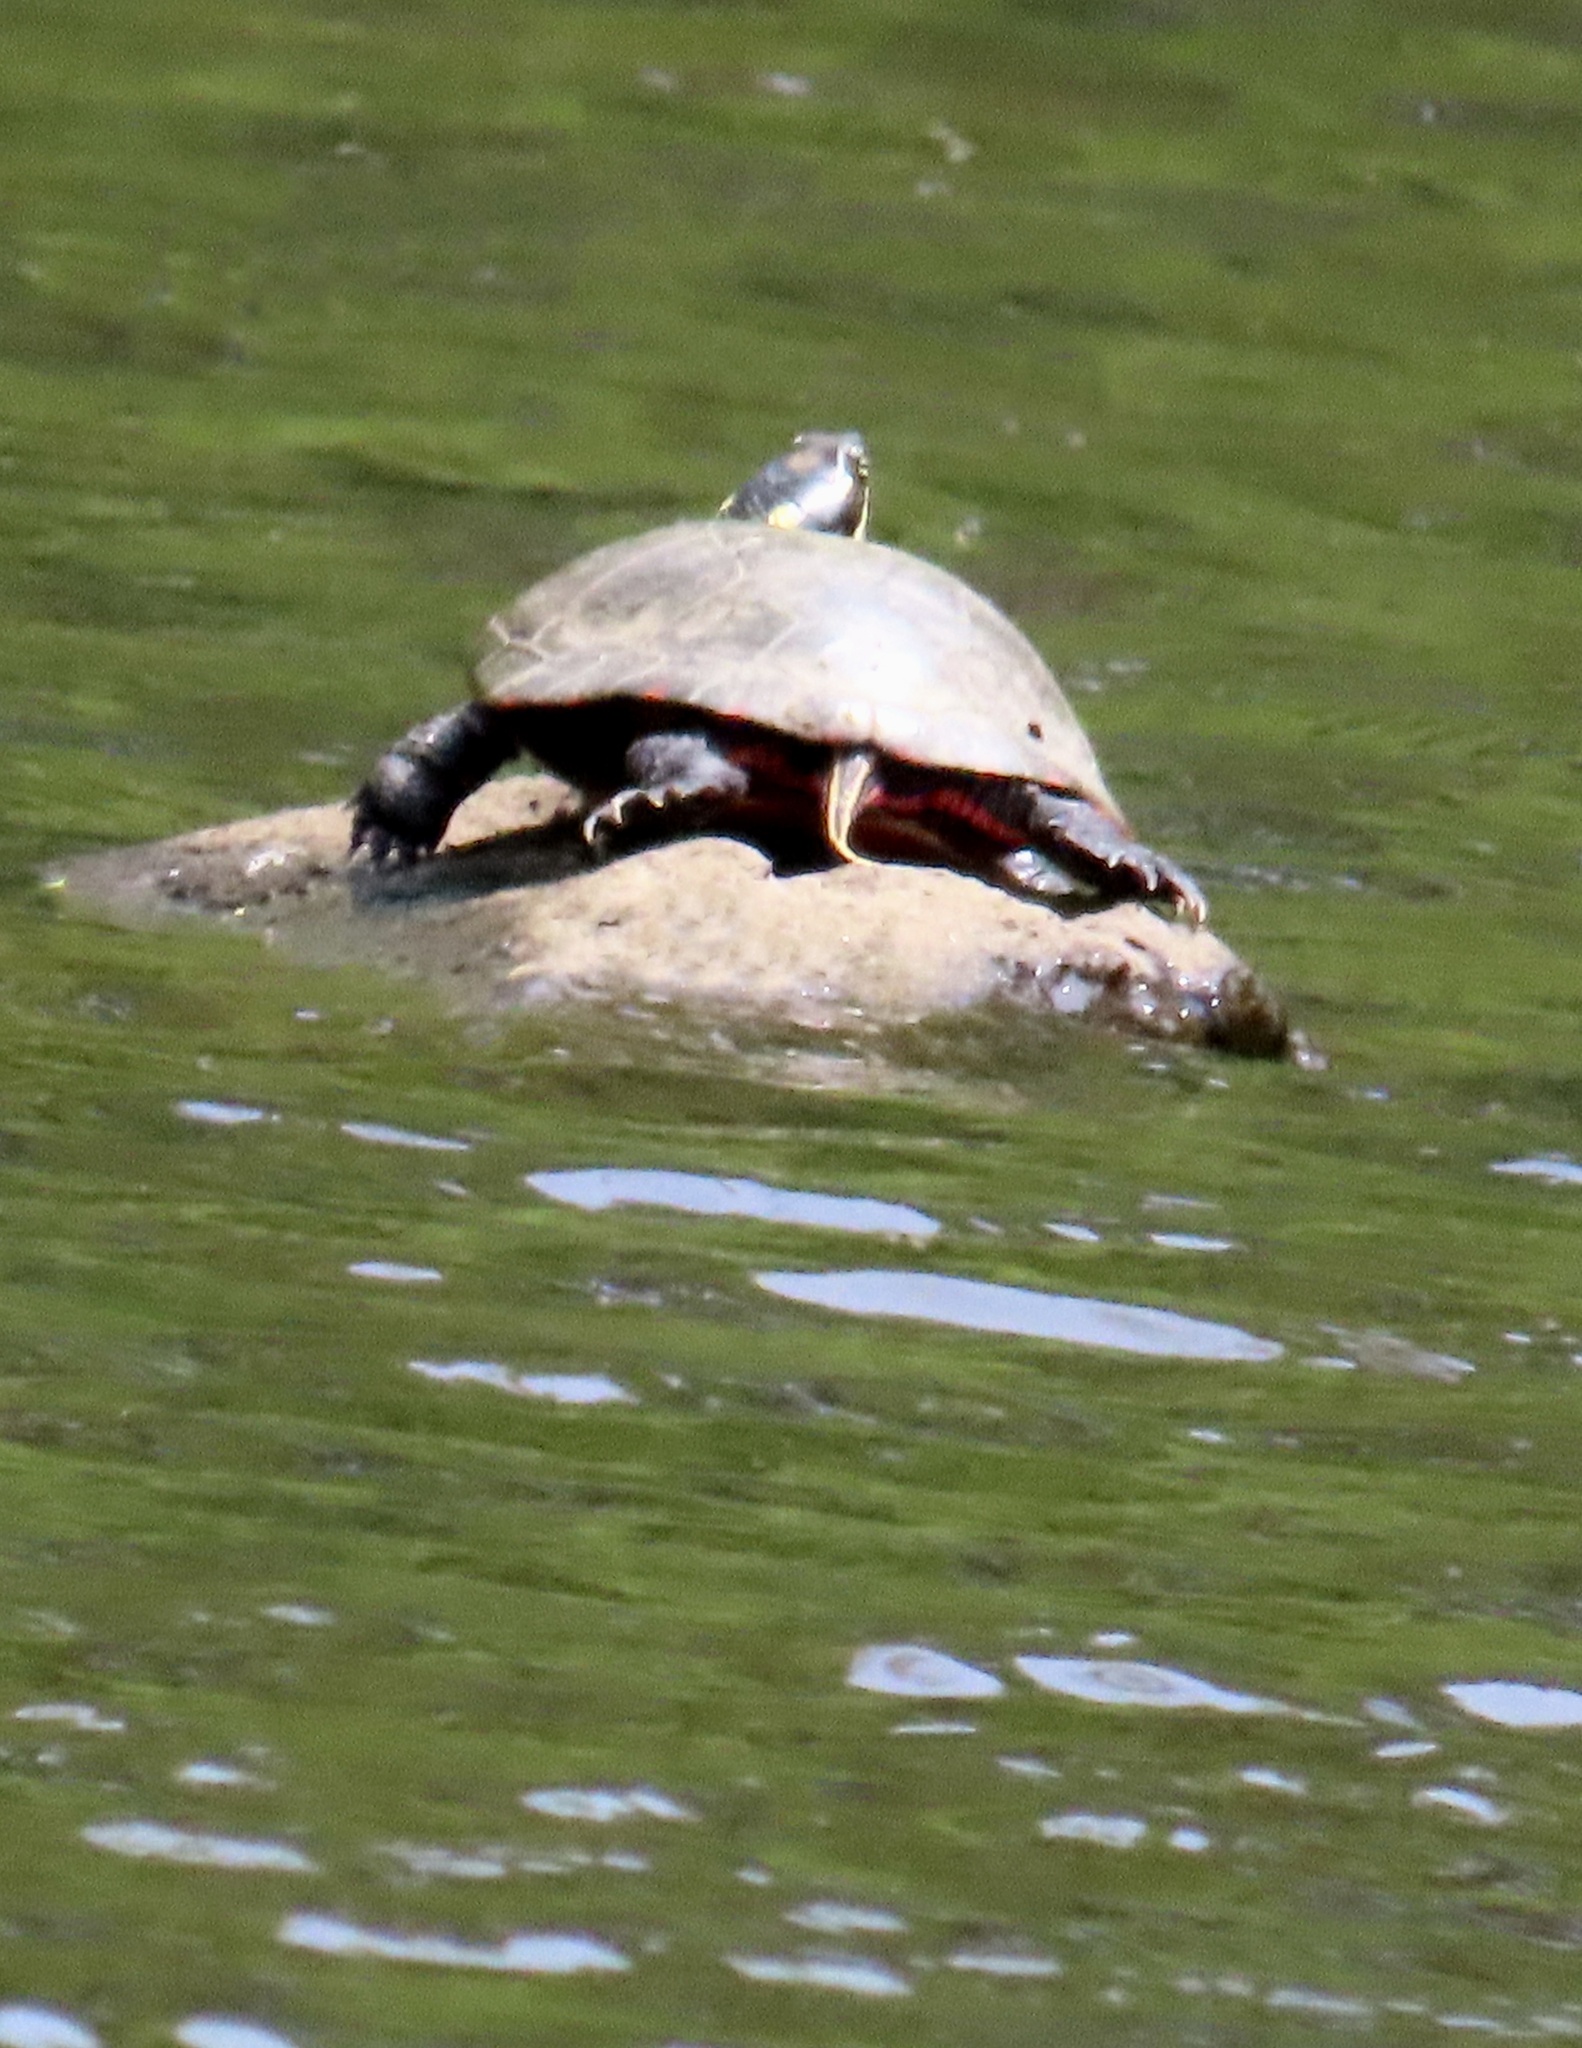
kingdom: Animalia
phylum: Chordata
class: Testudines
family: Emydidae
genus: Chrysemys
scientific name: Chrysemys picta
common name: Painted turtle
